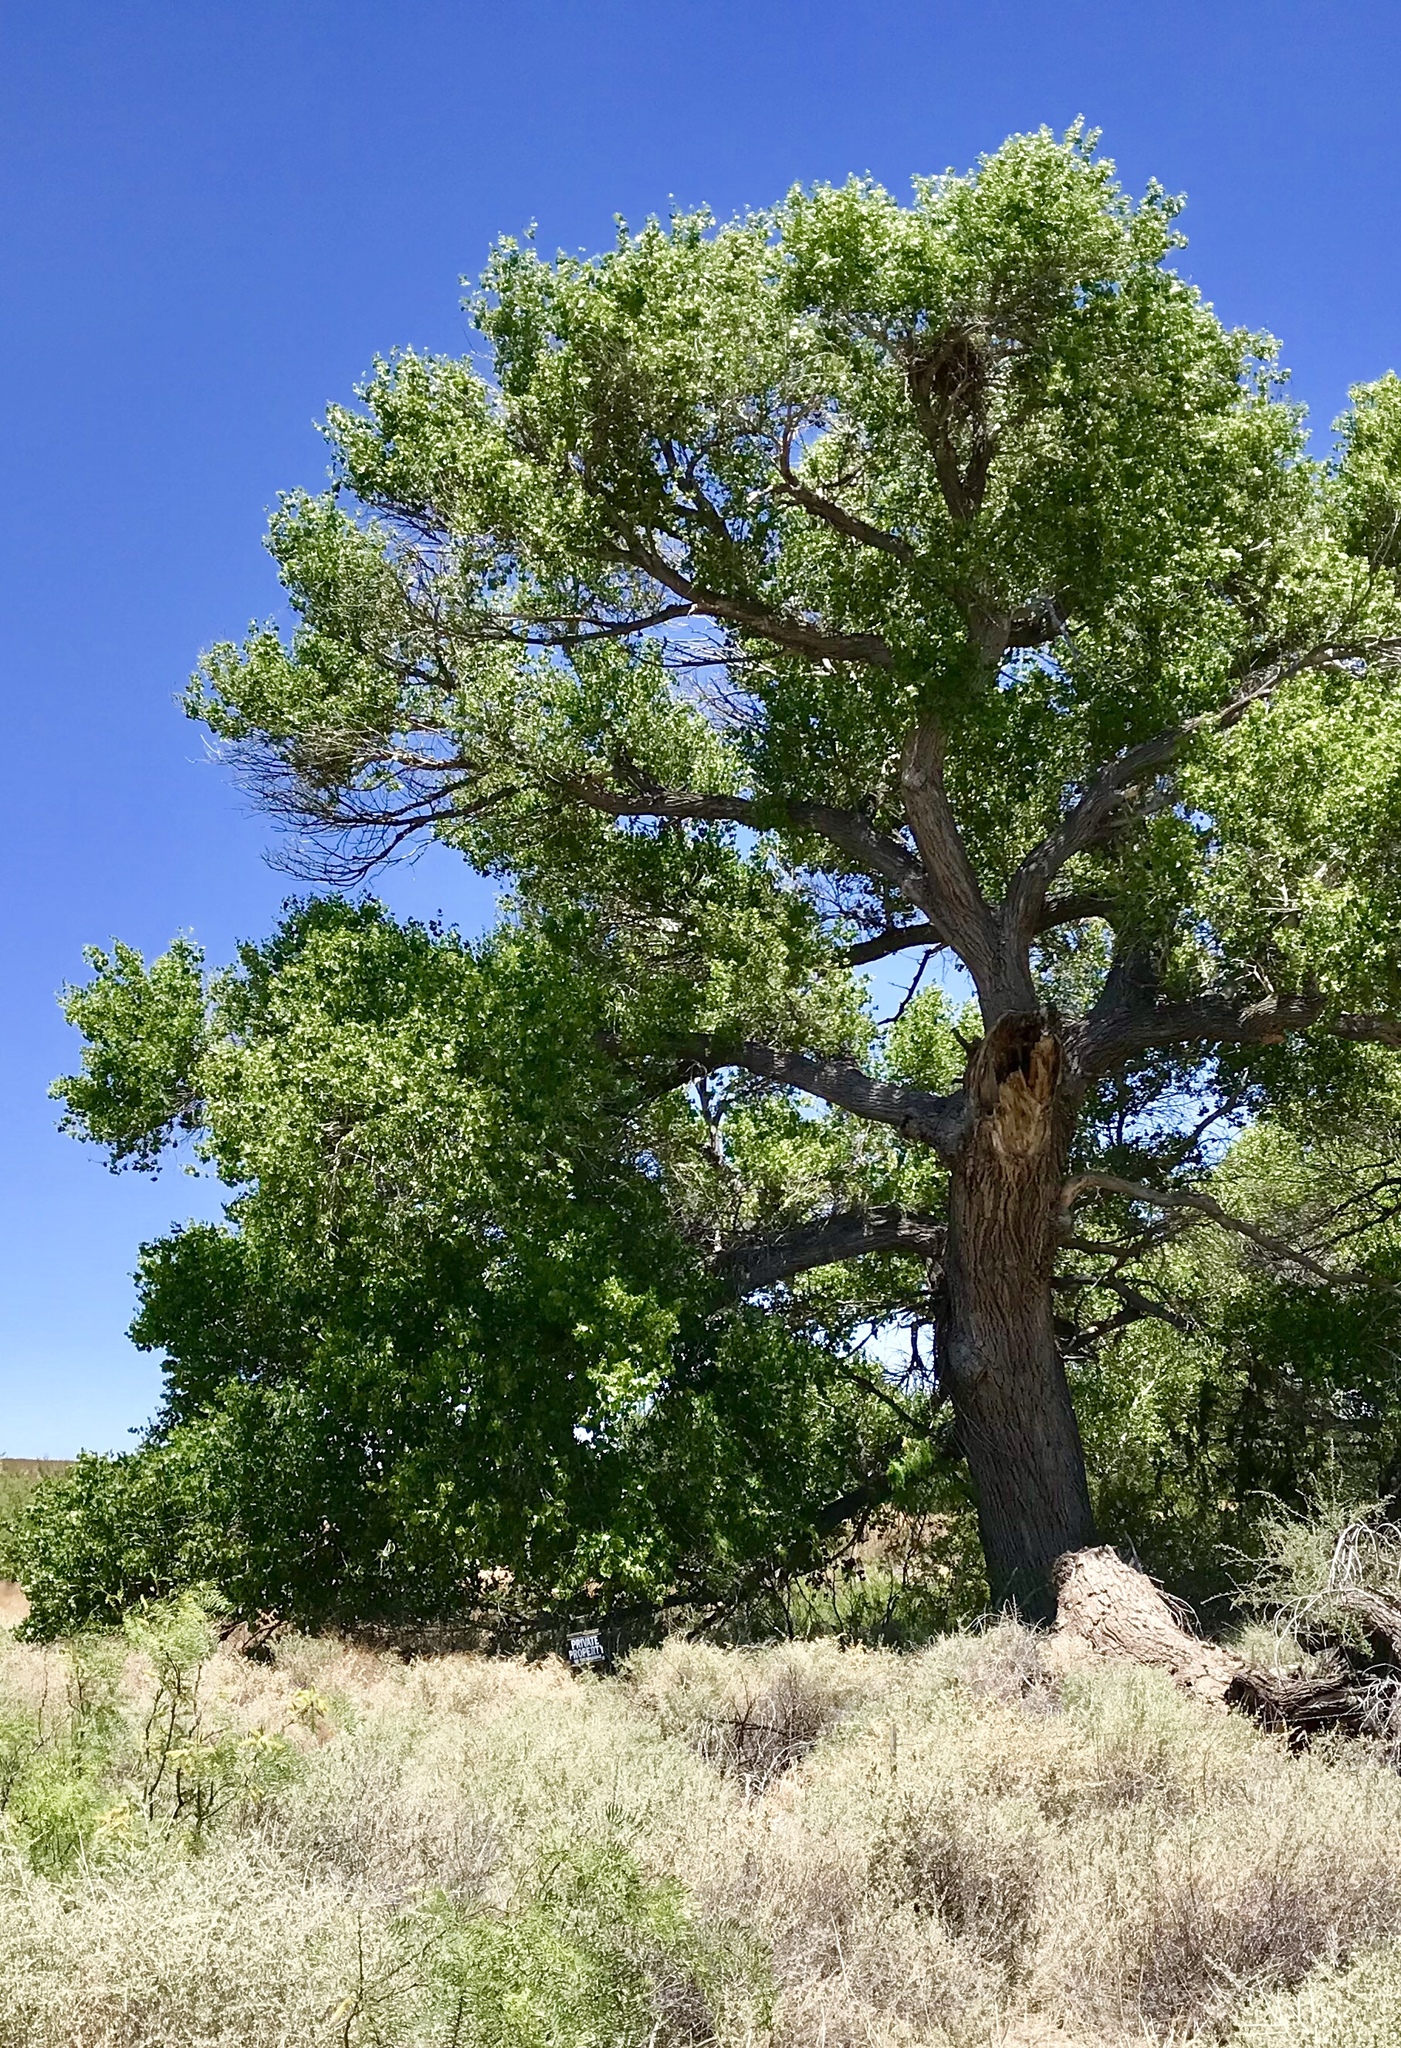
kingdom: Plantae
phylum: Tracheophyta
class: Magnoliopsida
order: Malpighiales
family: Salicaceae
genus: Populus
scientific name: Populus fremontii
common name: Fremont's cottonwood
